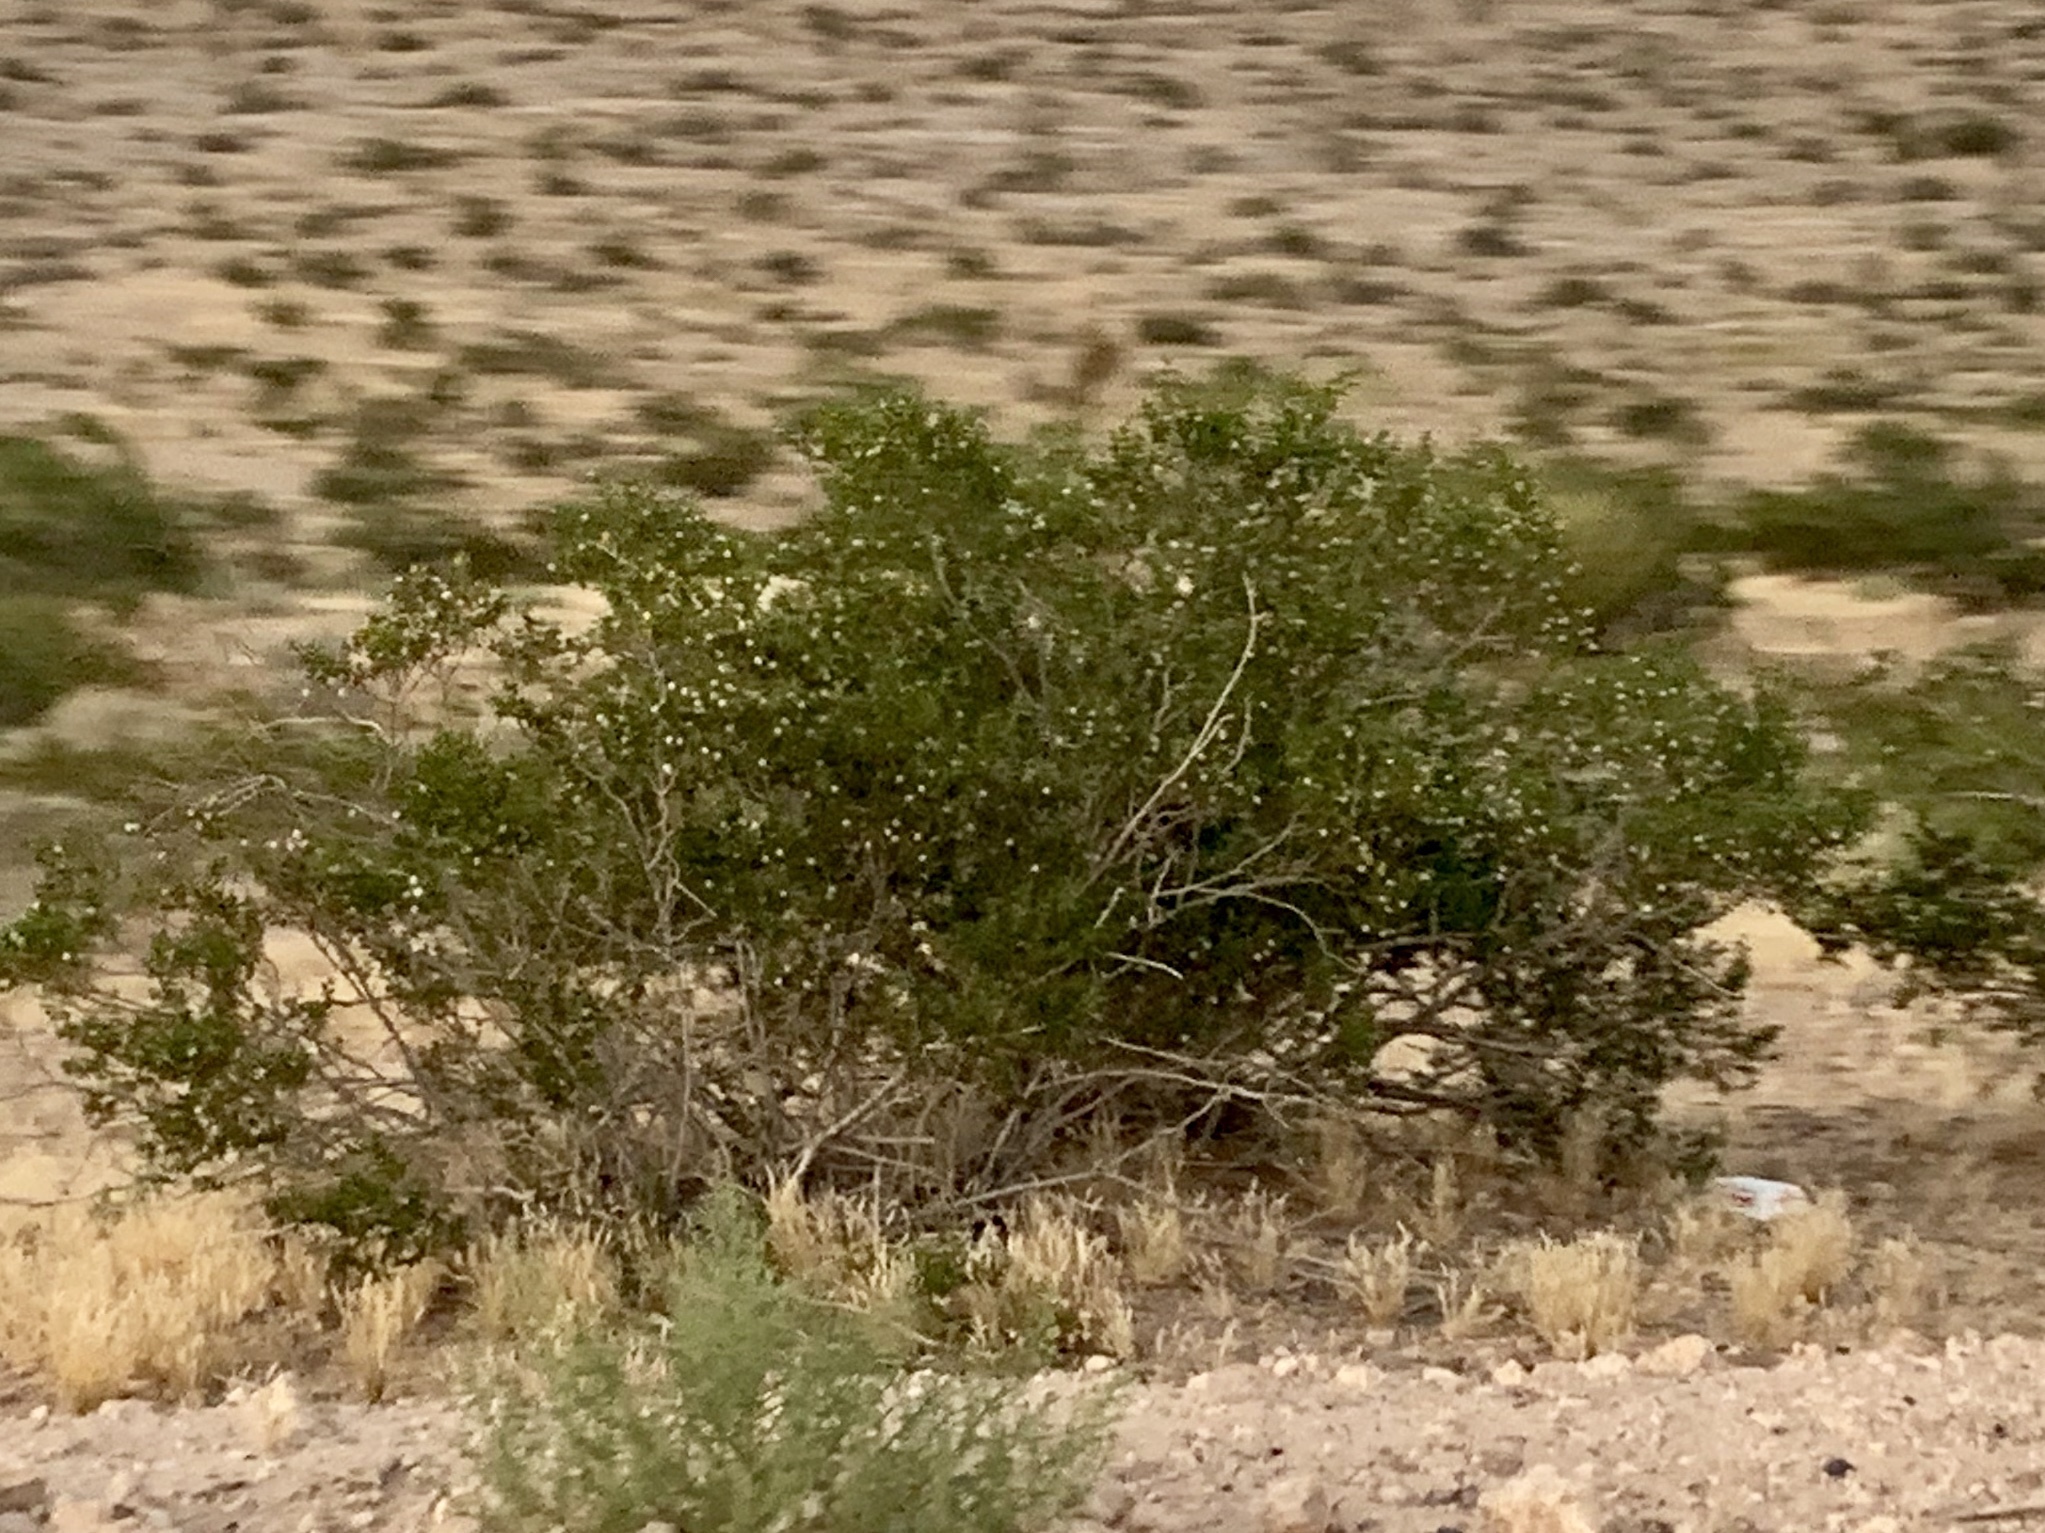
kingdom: Plantae
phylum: Tracheophyta
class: Magnoliopsida
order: Zygophyllales
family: Zygophyllaceae
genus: Larrea
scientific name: Larrea tridentata
